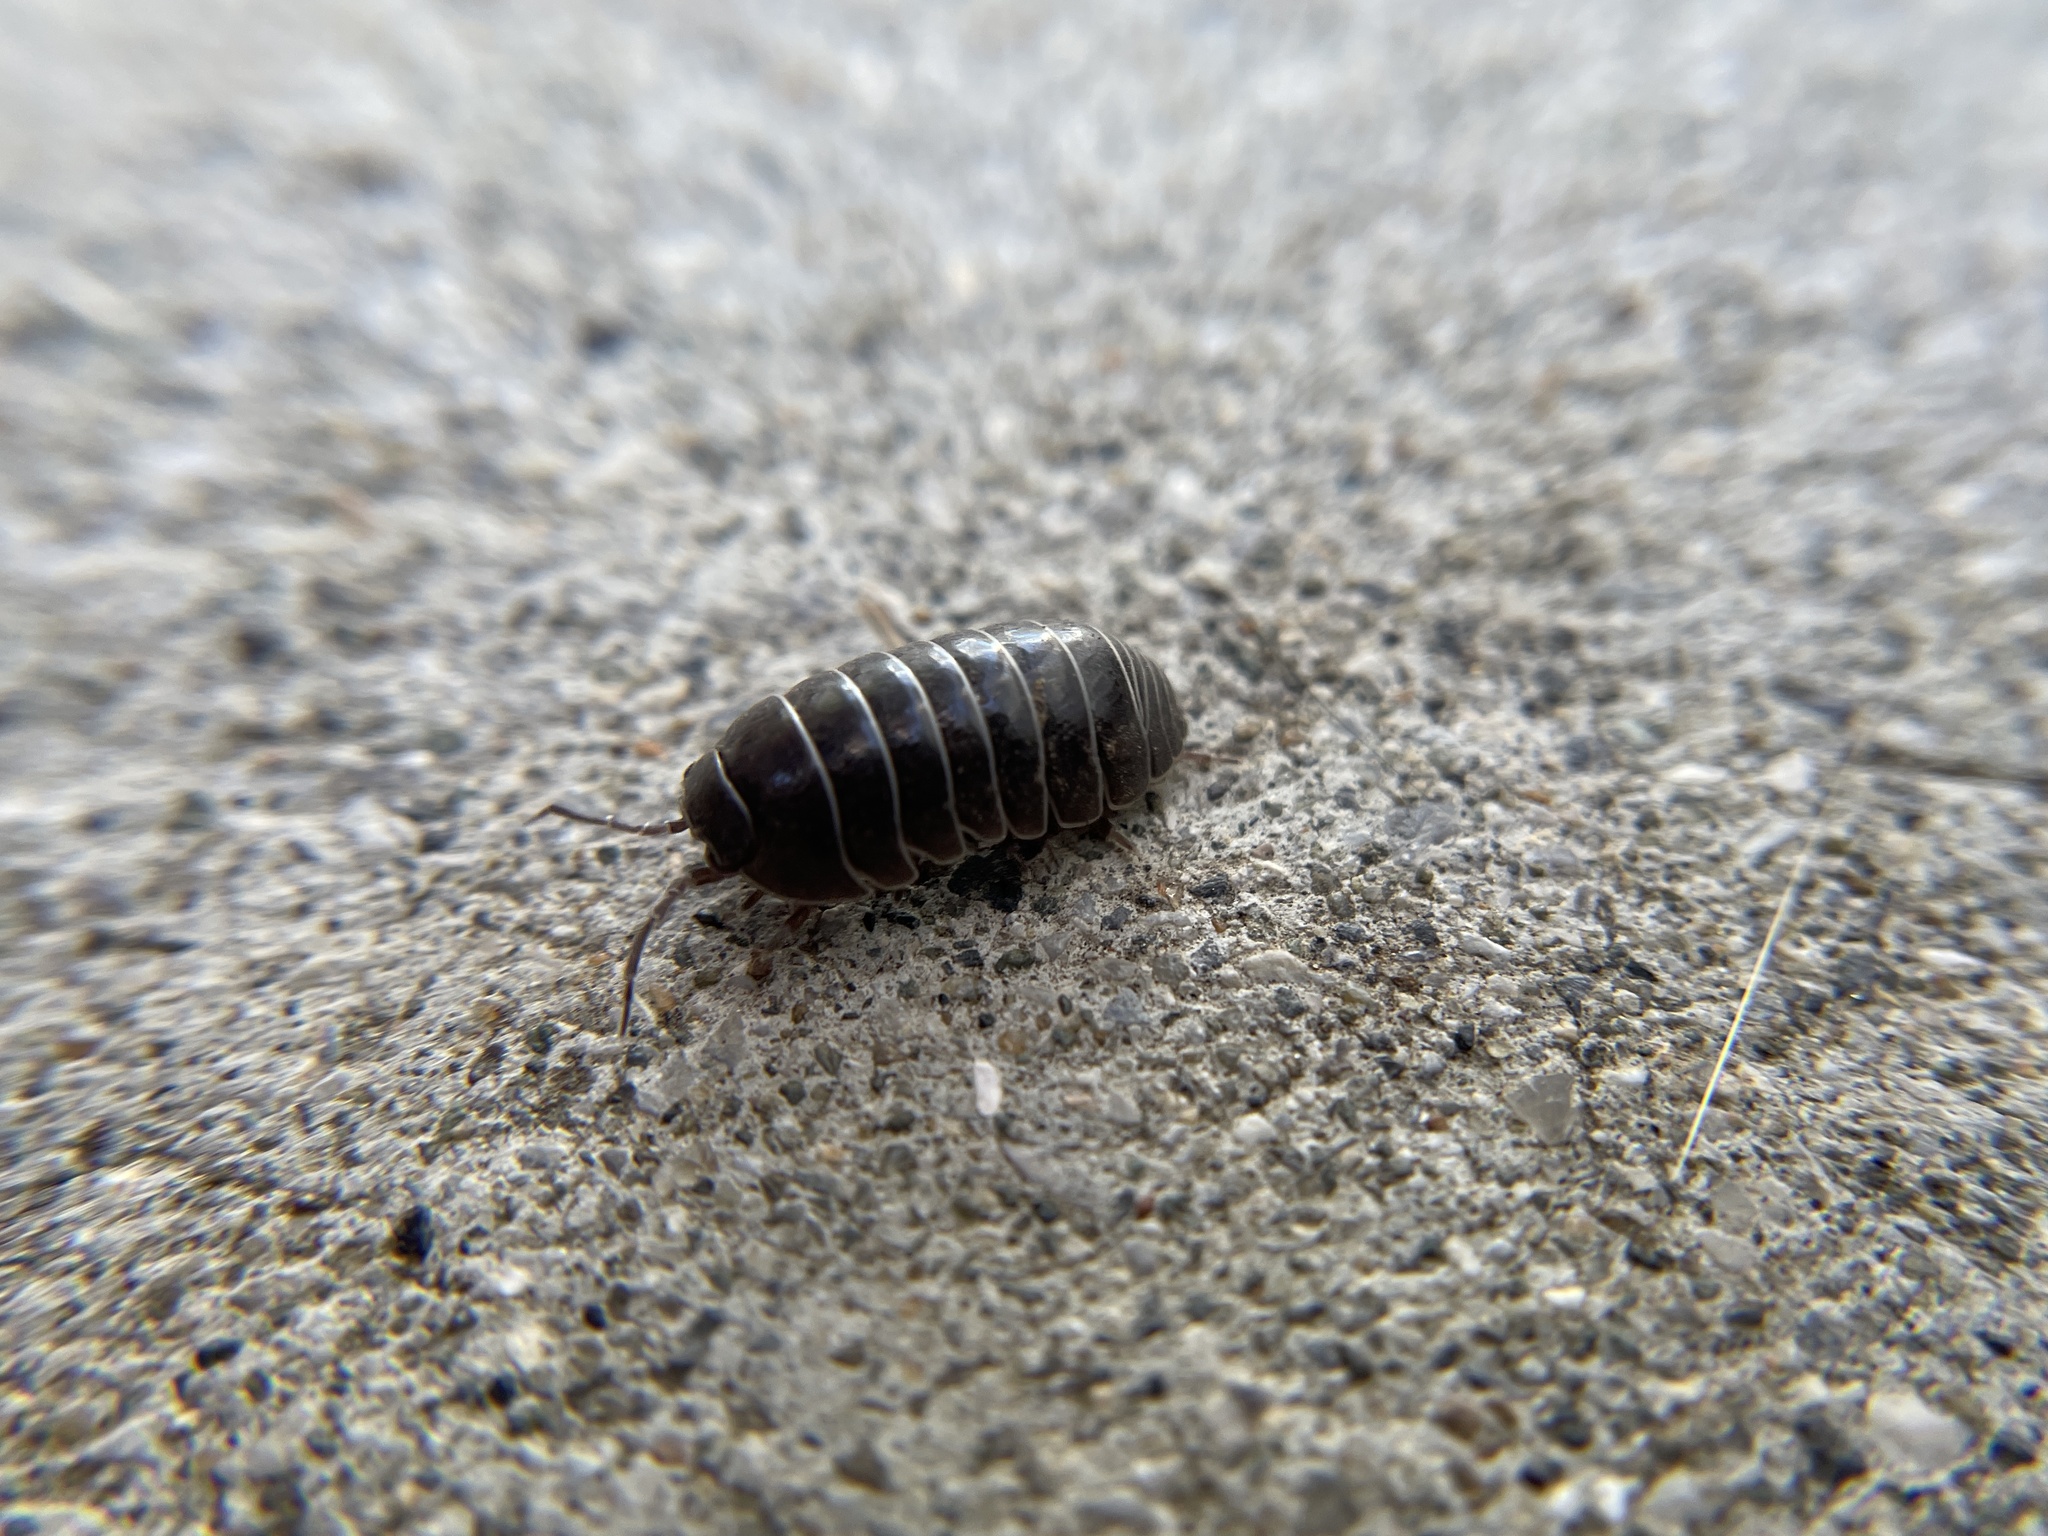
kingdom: Animalia
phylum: Arthropoda
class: Malacostraca
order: Isopoda
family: Armadillidiidae
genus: Armadillidium
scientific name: Armadillidium vulgare
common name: Common pill woodlouse
